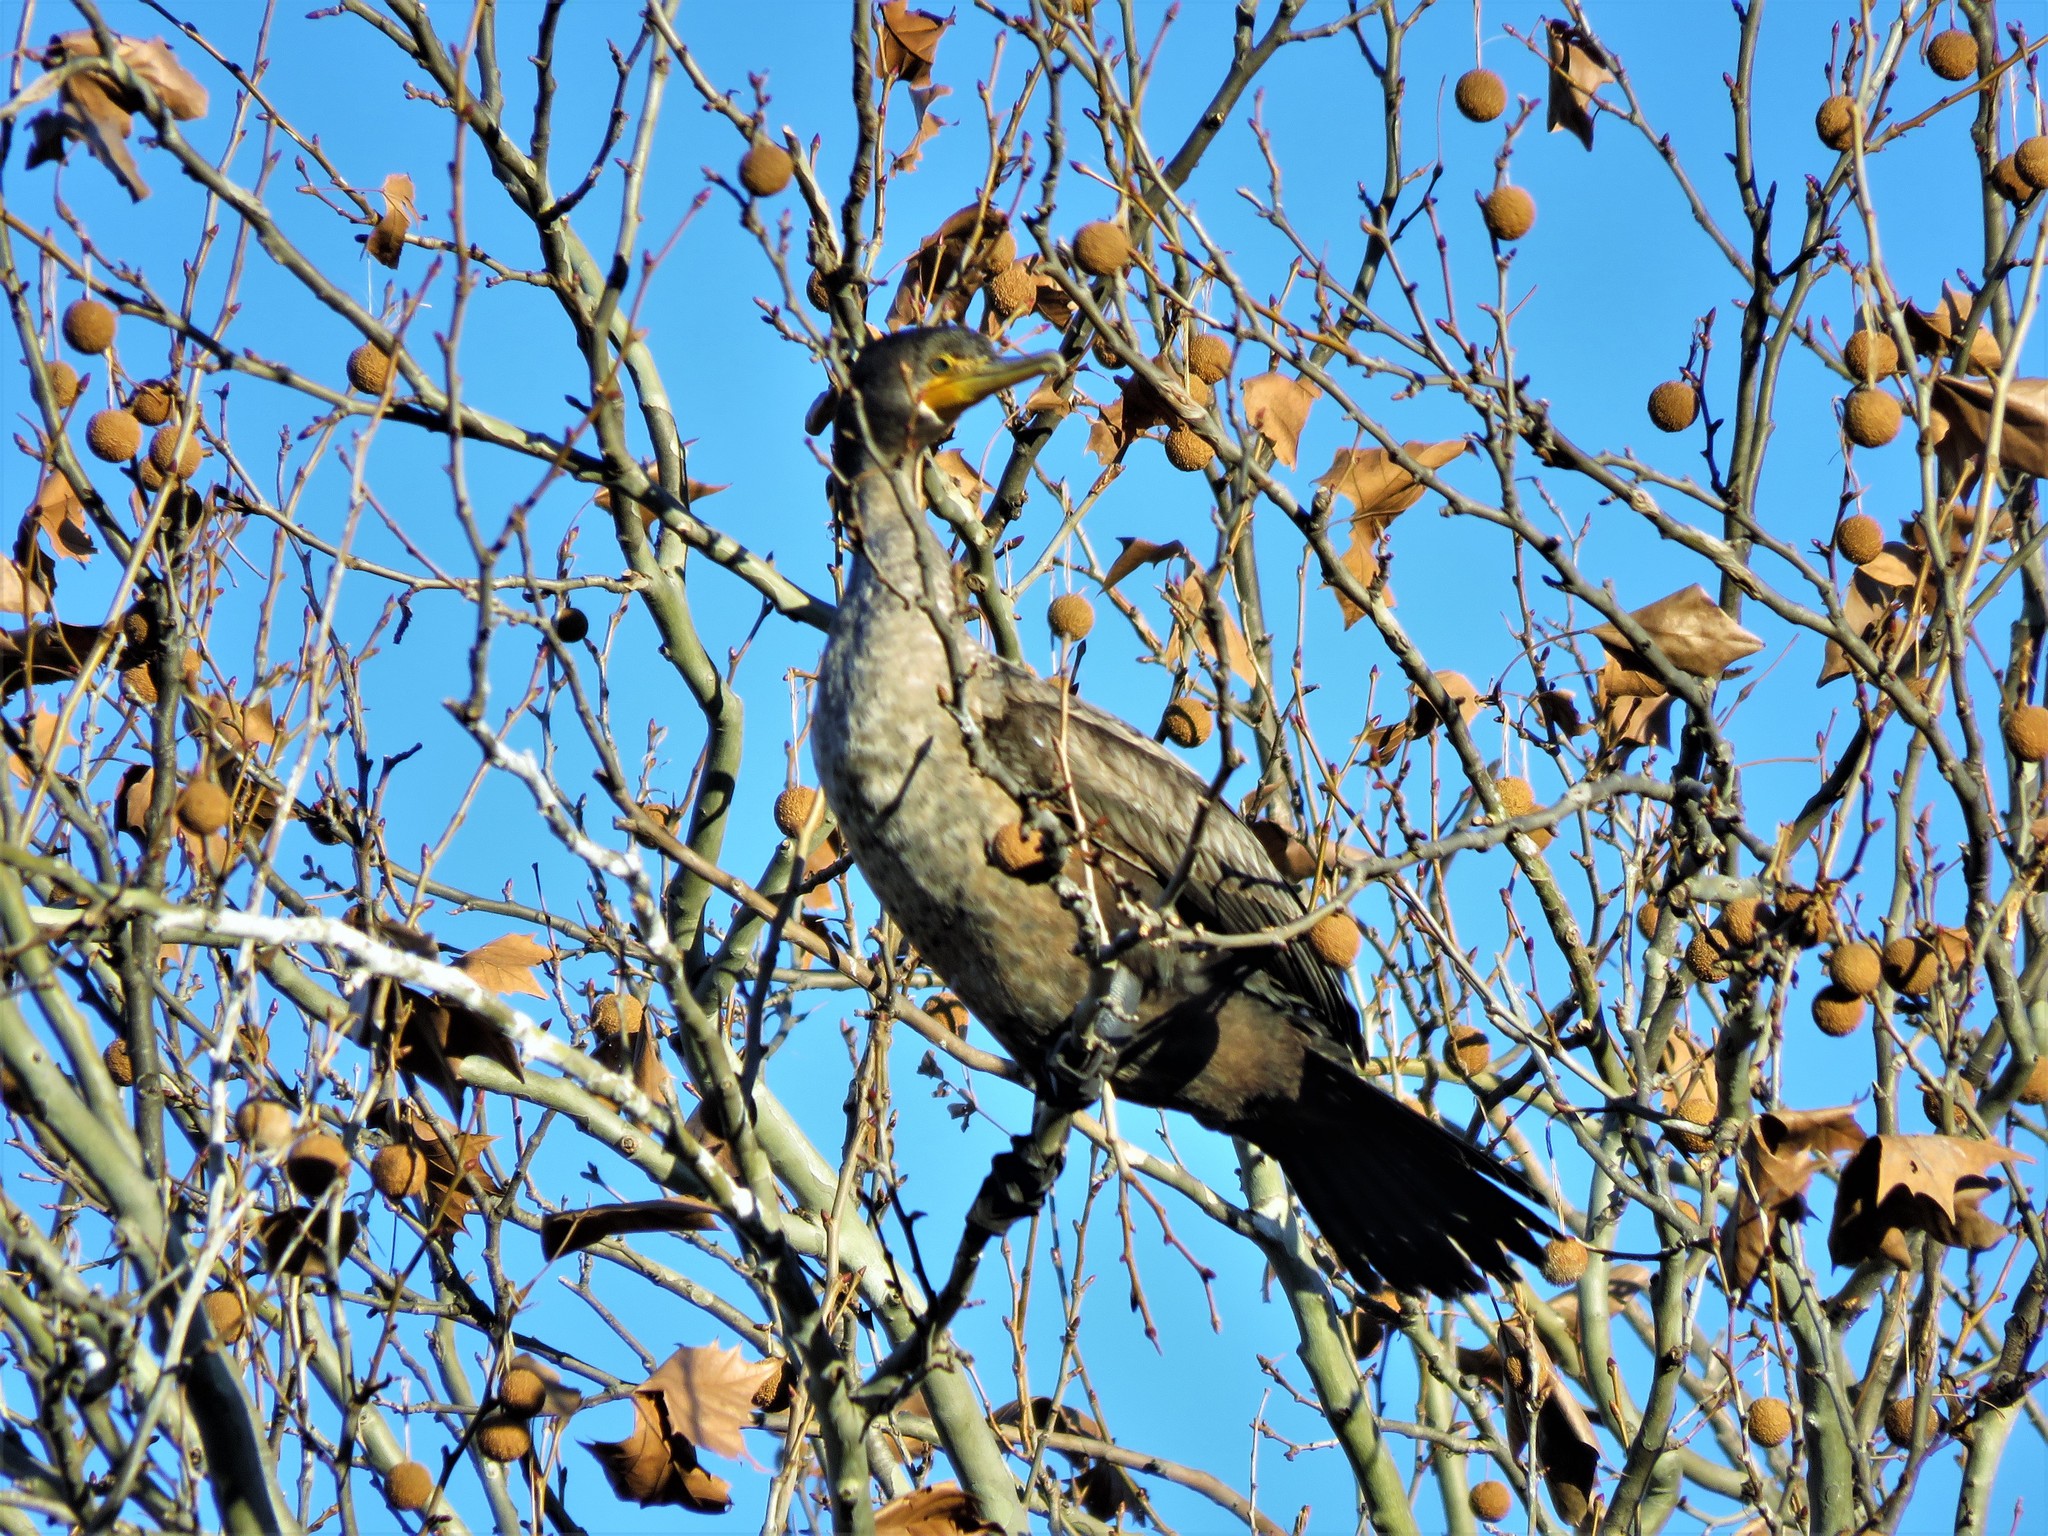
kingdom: Animalia
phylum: Chordata
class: Aves
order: Suliformes
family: Phalacrocoracidae
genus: Phalacrocorax
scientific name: Phalacrocorax auritus
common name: Double-crested cormorant
